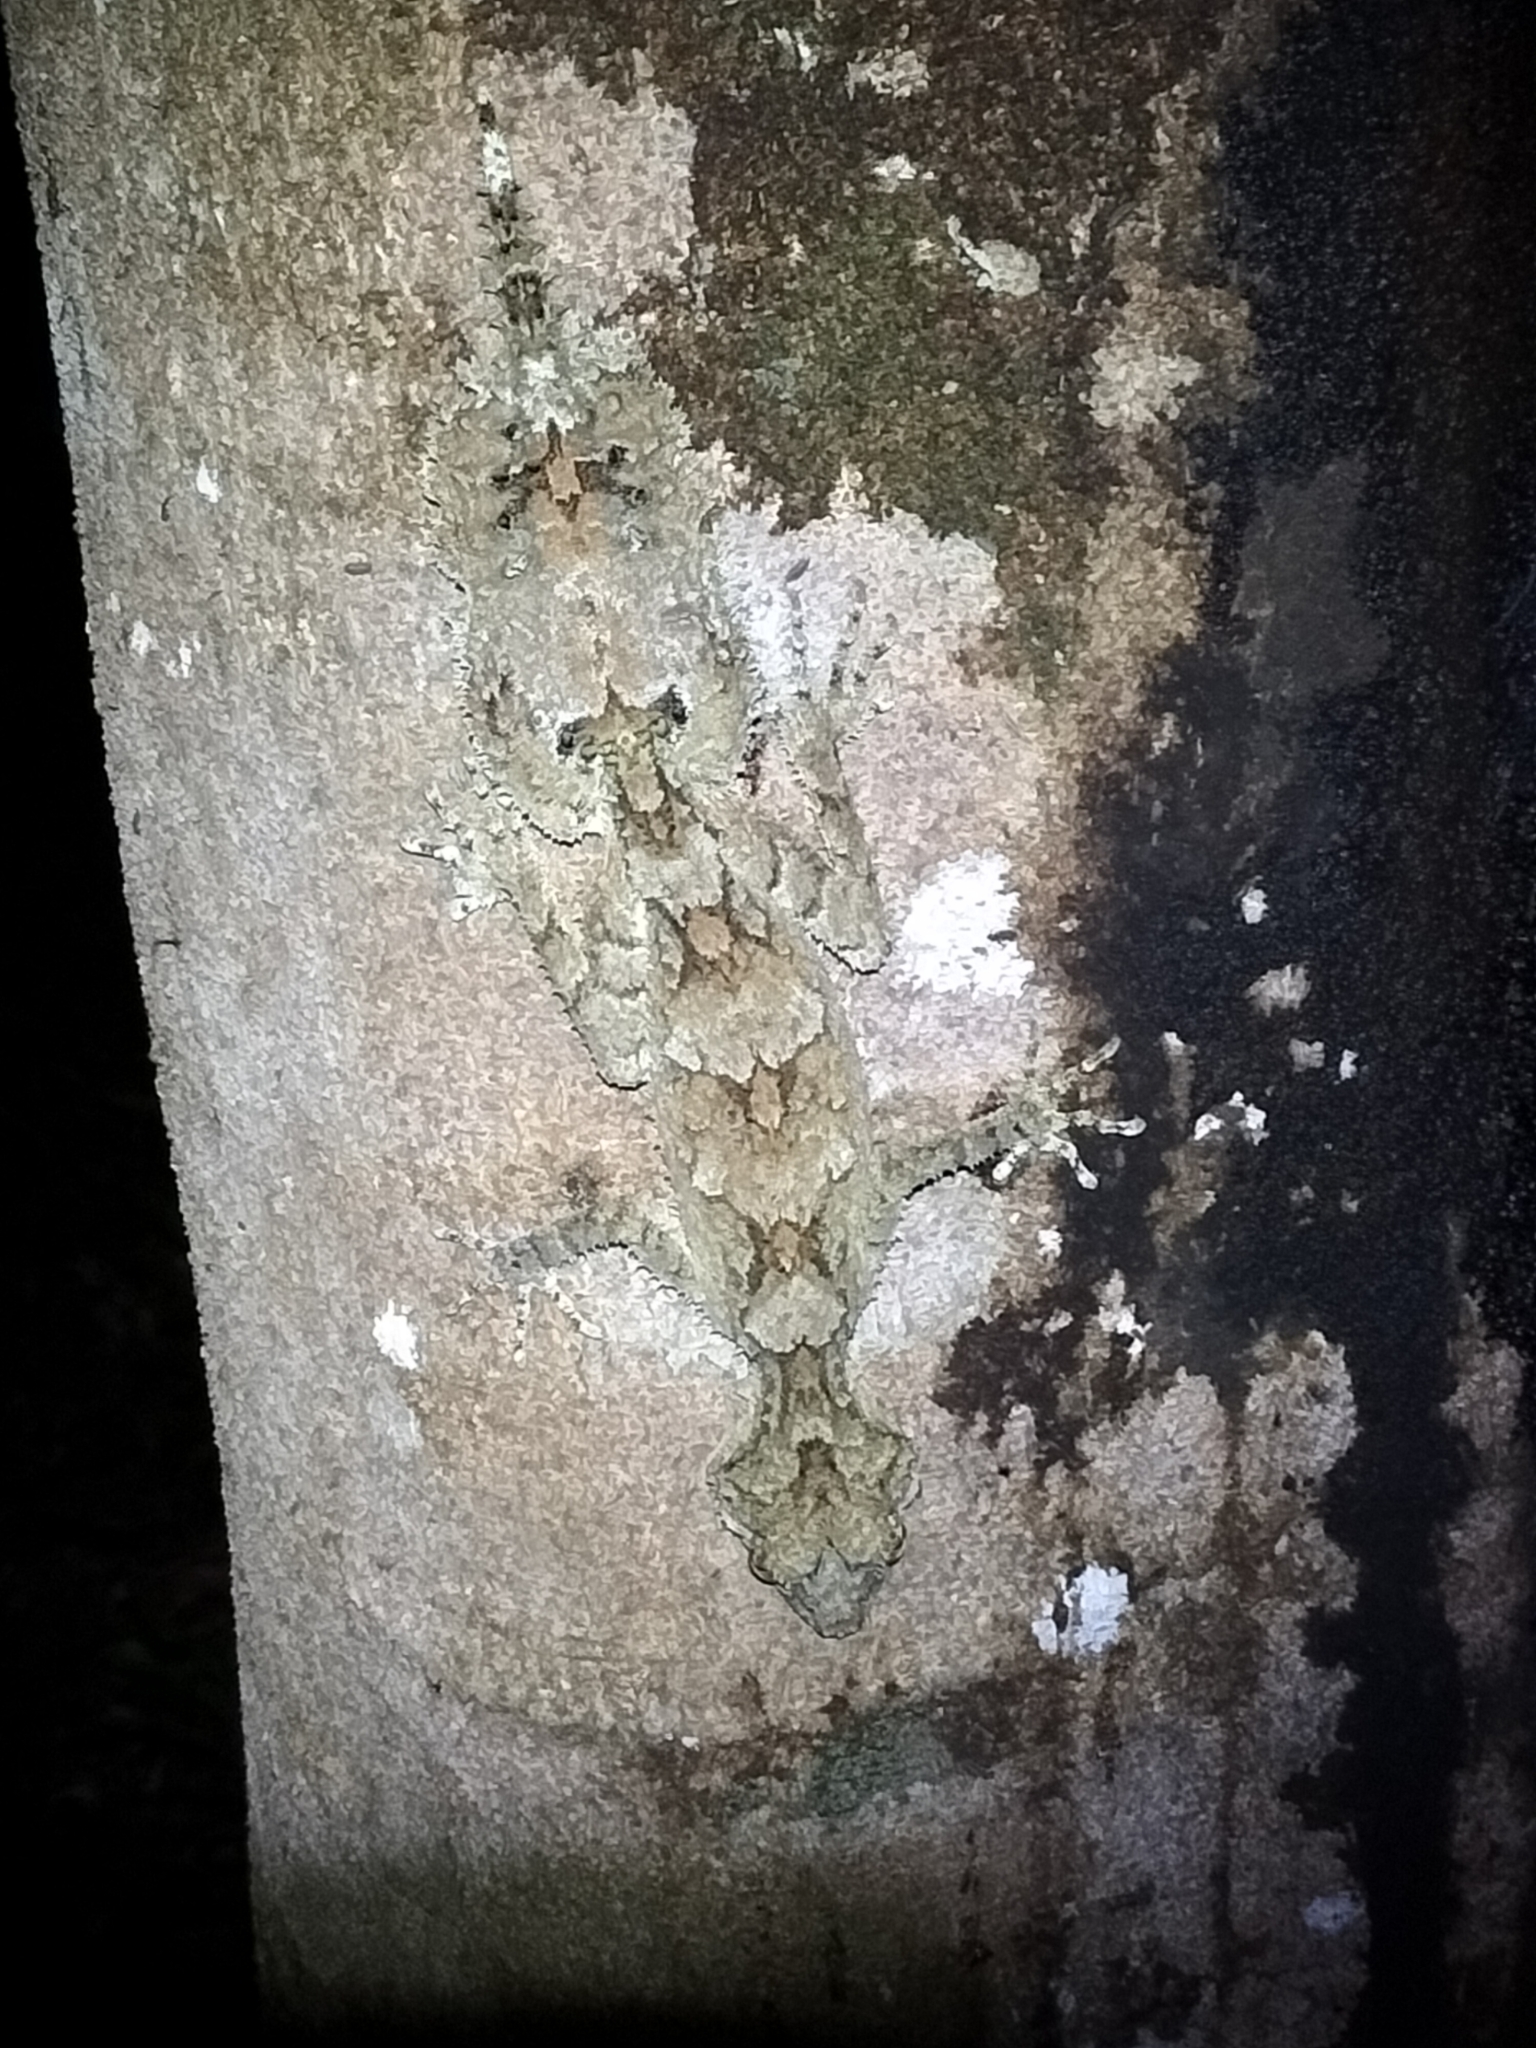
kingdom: Animalia
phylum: Chordata
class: Squamata
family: Carphodactylidae
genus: Saltuarius
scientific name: Saltuarius cornutus
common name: Leaf-tailed gecko
